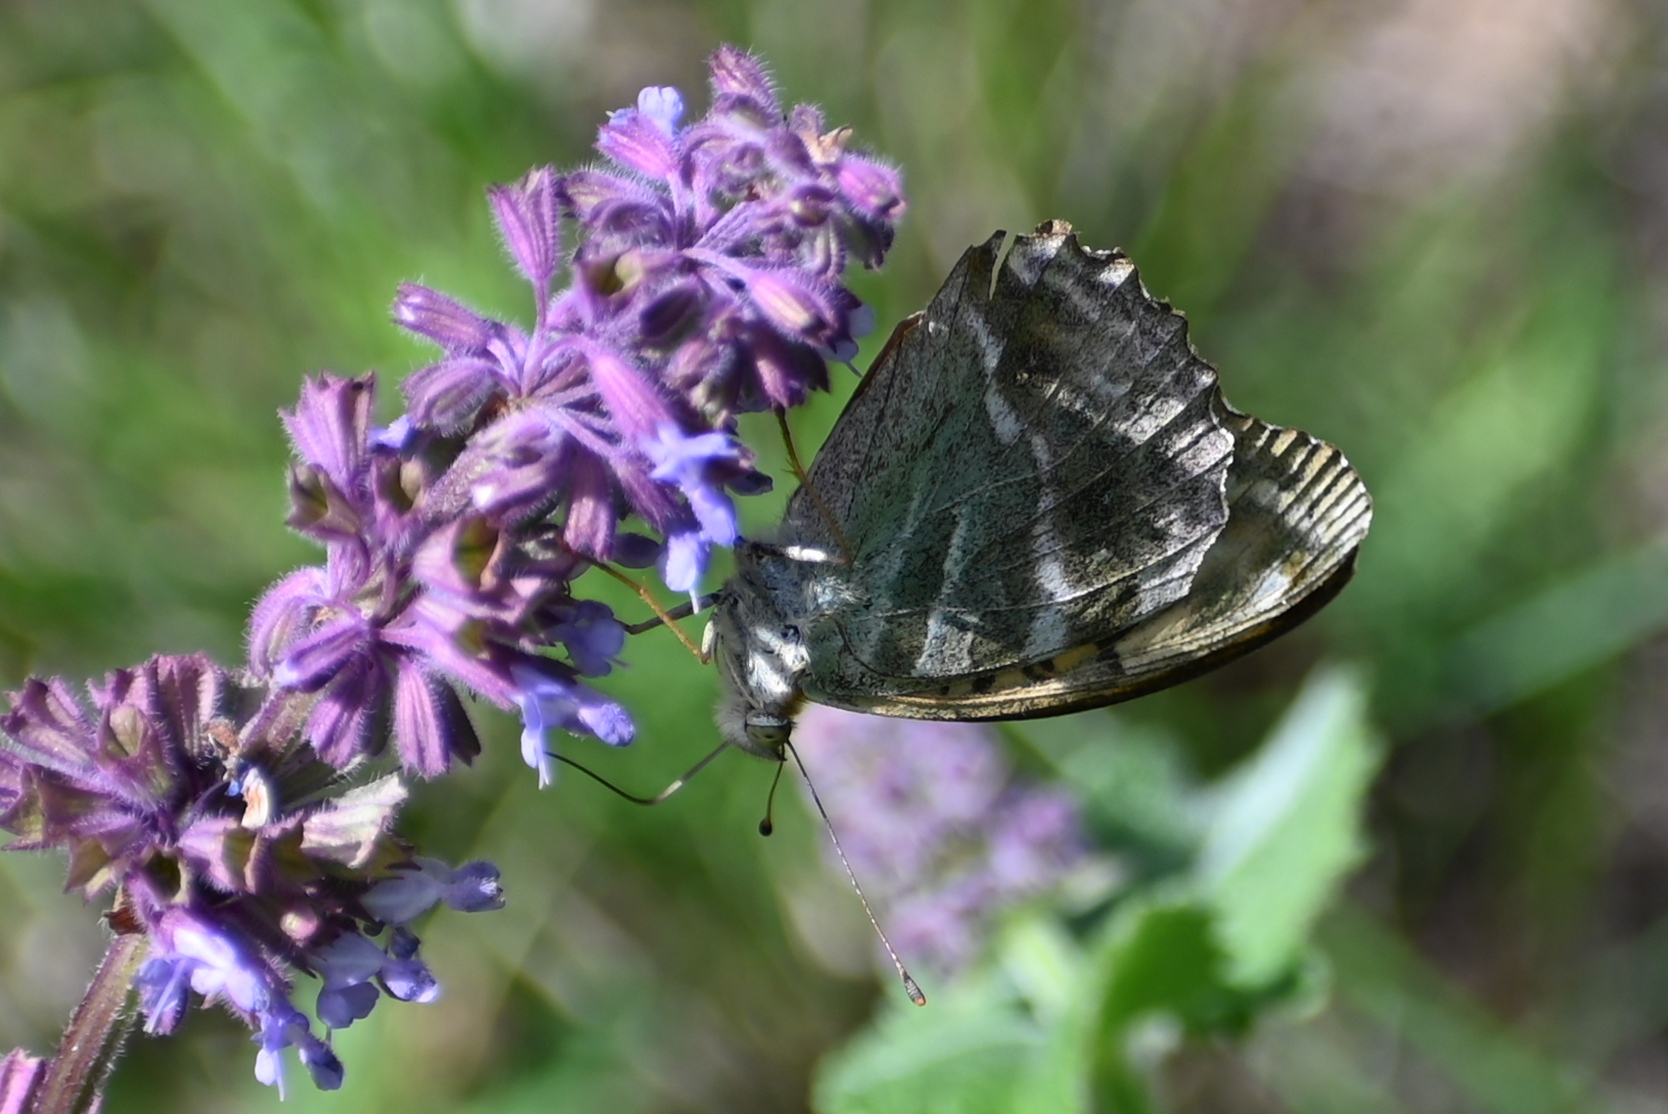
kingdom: Animalia
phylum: Arthropoda
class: Insecta
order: Lepidoptera
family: Nymphalidae
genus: Argynnis
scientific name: Argynnis paphia
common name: Silver-washed fritillary
